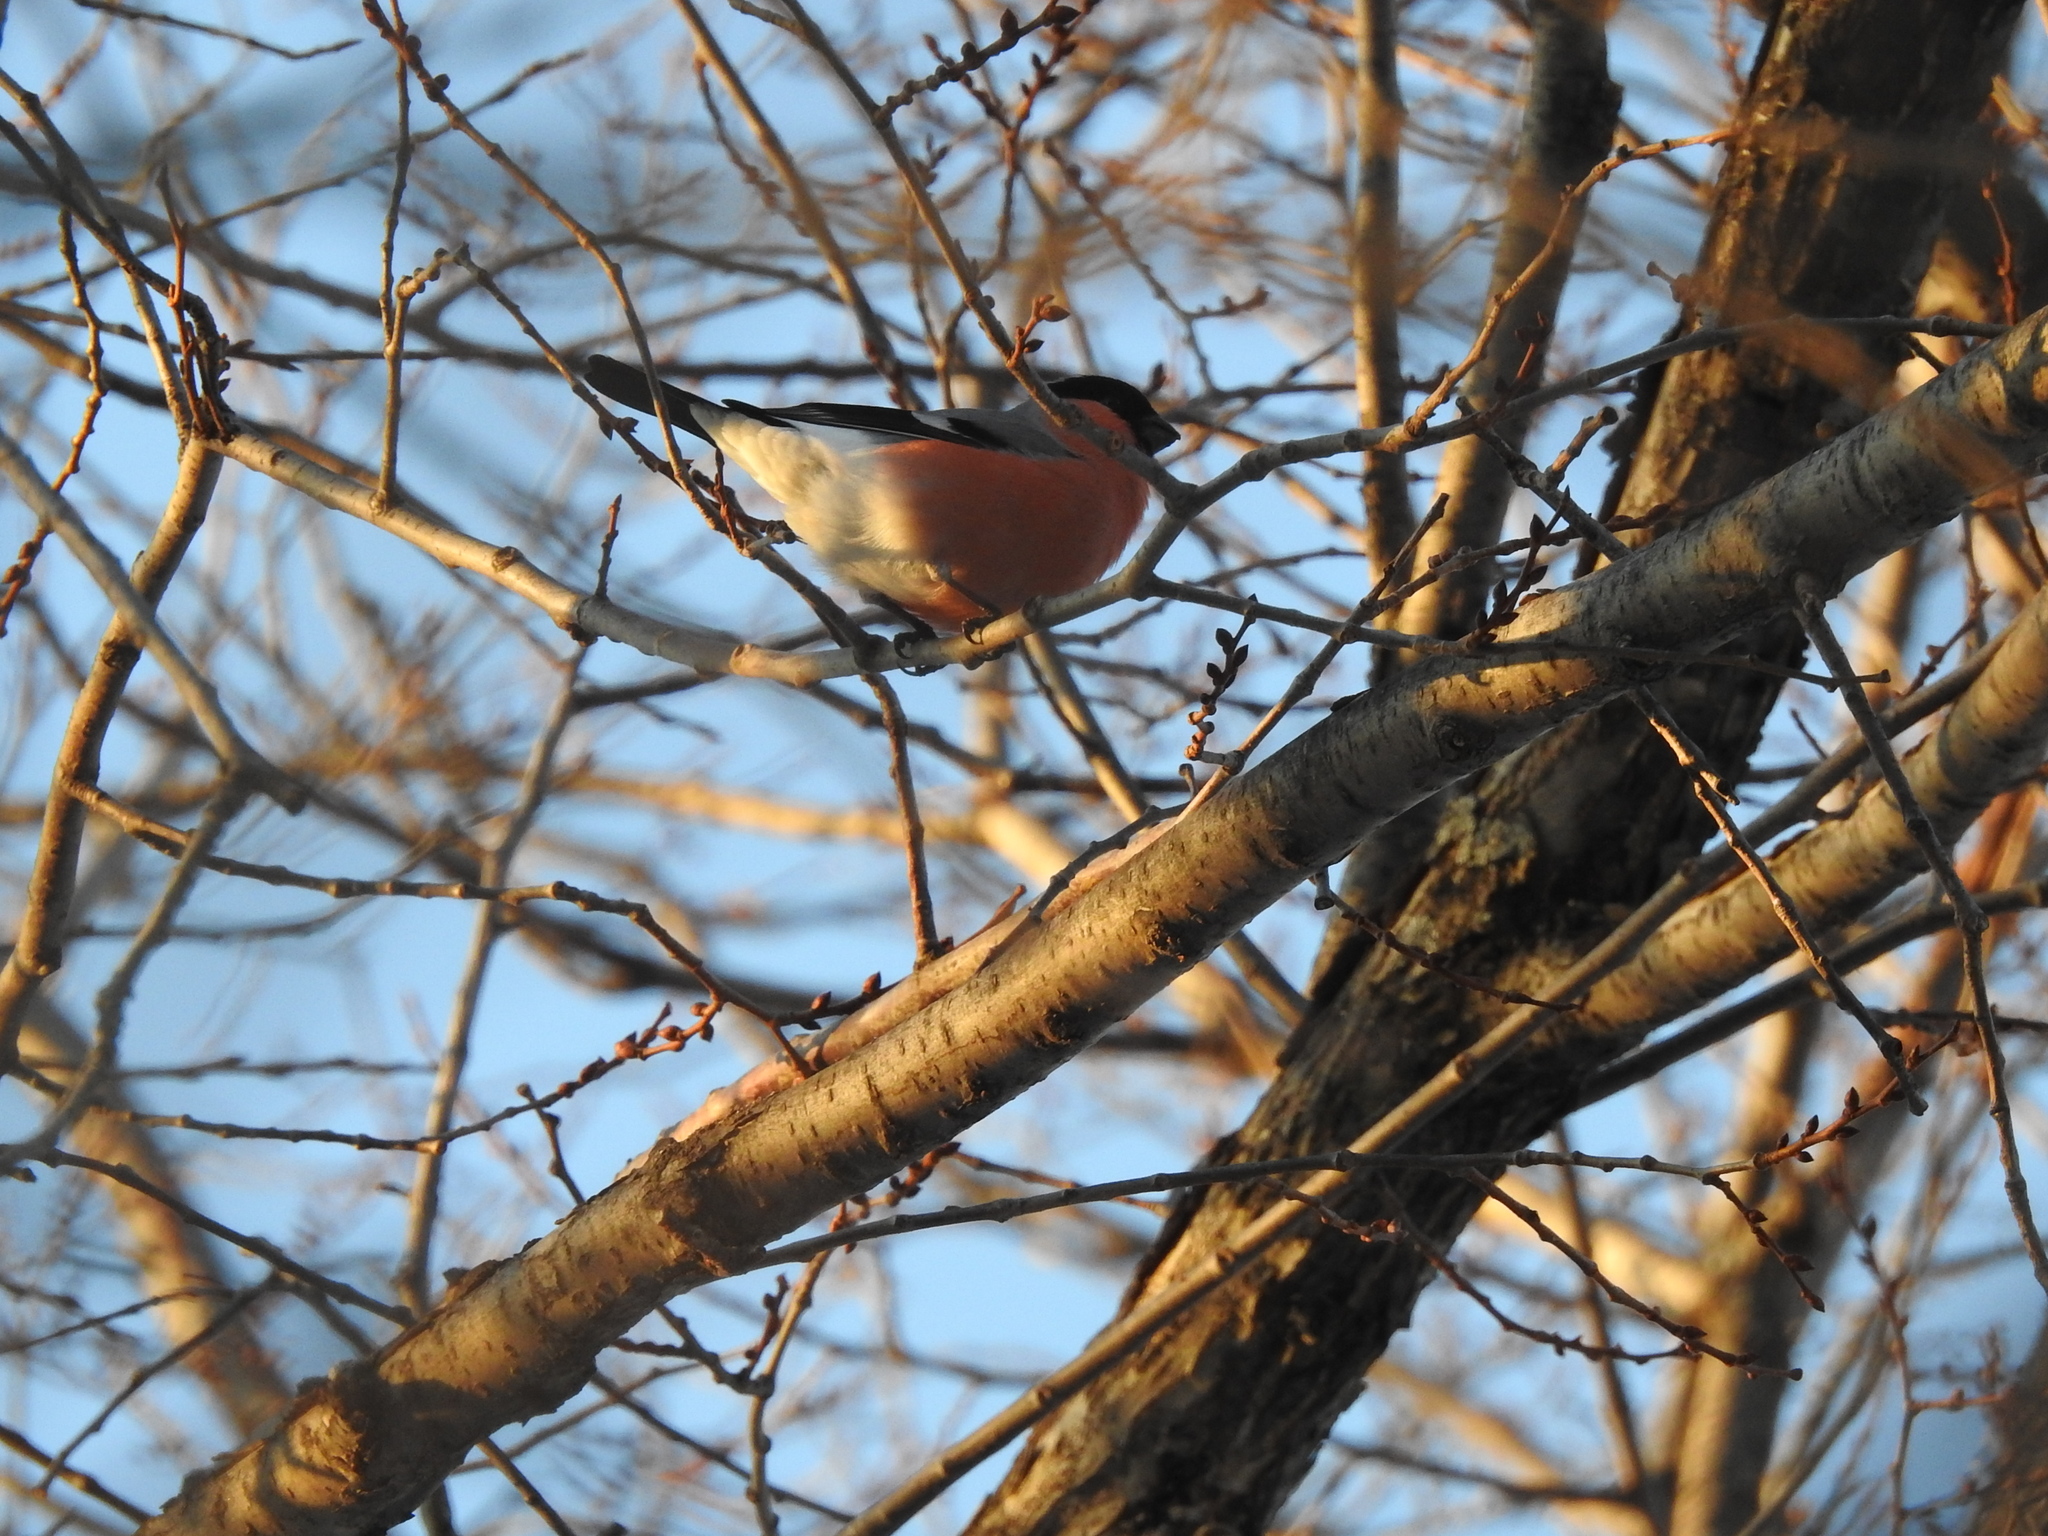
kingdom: Animalia
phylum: Chordata
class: Aves
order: Passeriformes
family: Fringillidae
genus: Pyrrhula
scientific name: Pyrrhula pyrrhula
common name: Eurasian bullfinch
